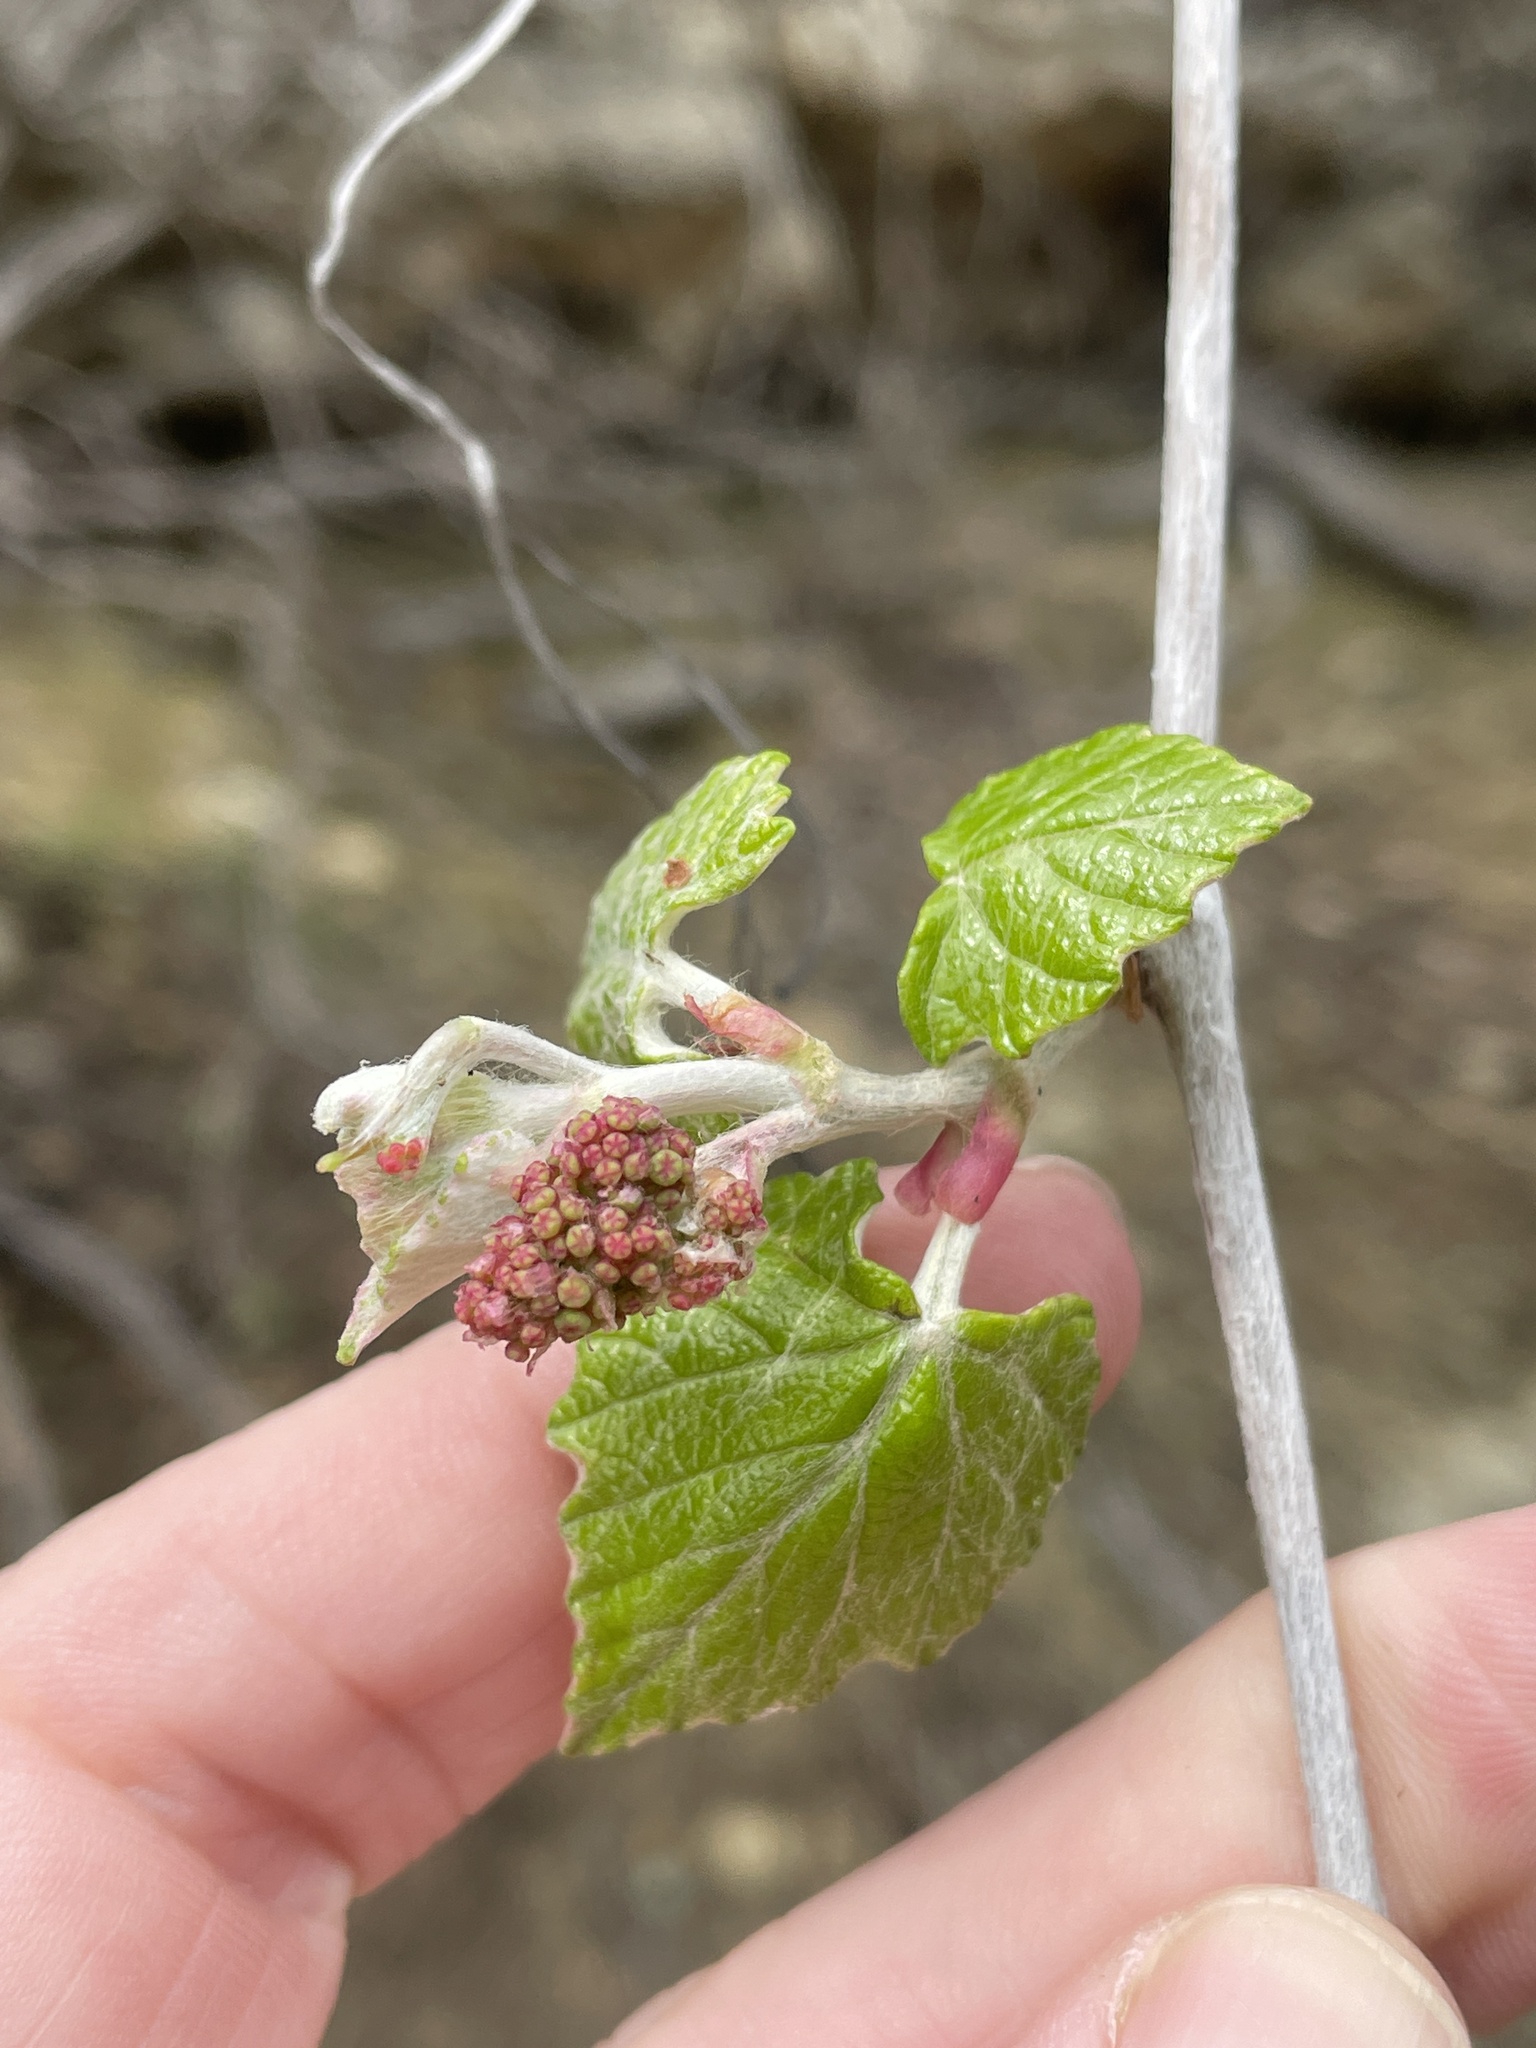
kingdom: Plantae
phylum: Tracheophyta
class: Magnoliopsida
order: Vitales
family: Vitaceae
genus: Vitis
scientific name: Vitis mustangensis
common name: Mustang grape
